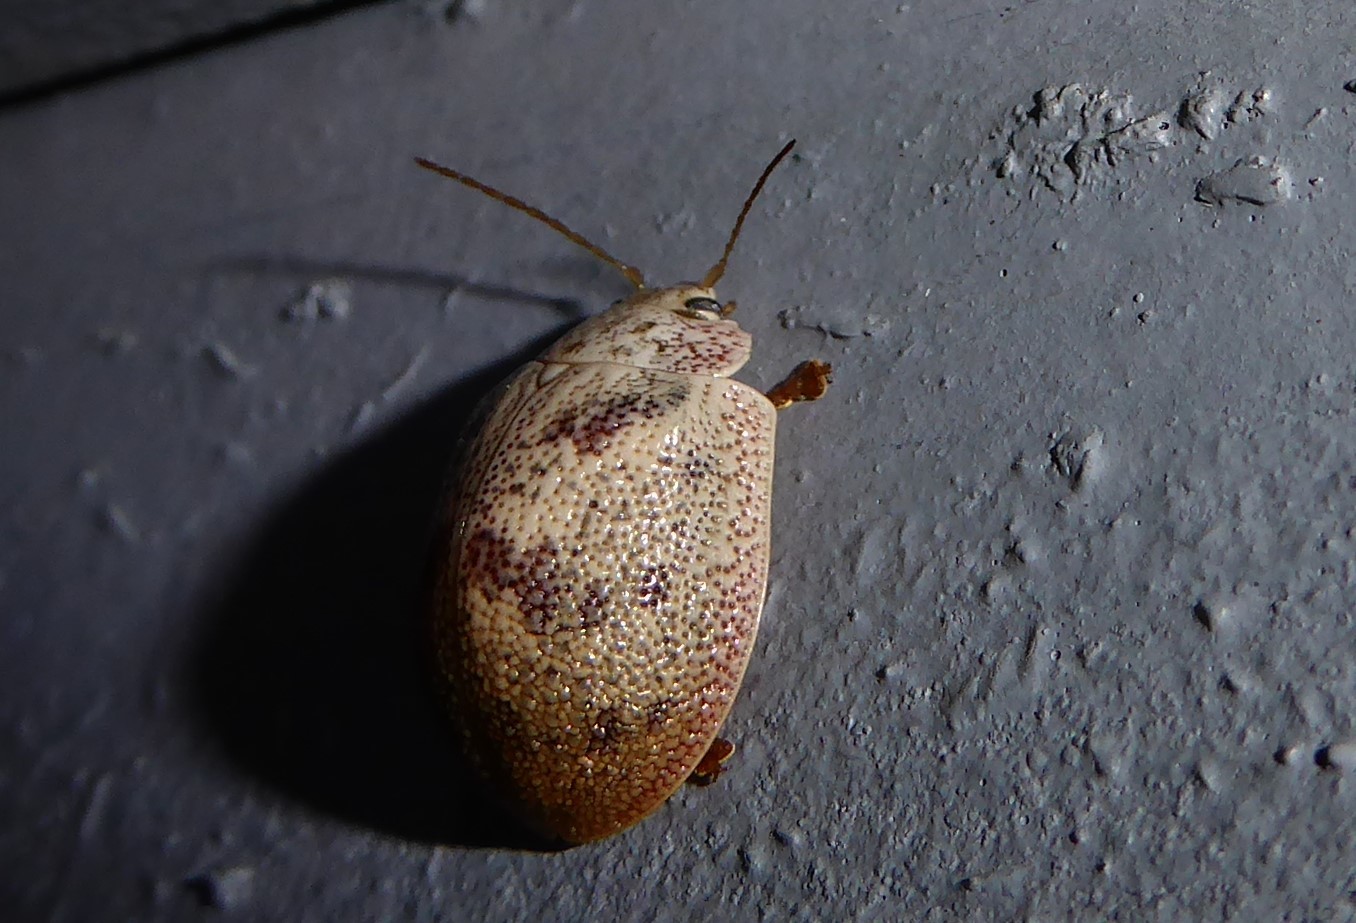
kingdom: Animalia
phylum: Arthropoda
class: Insecta
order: Coleoptera
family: Chrysomelidae
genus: Paropsis
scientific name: Paropsis charybdis
